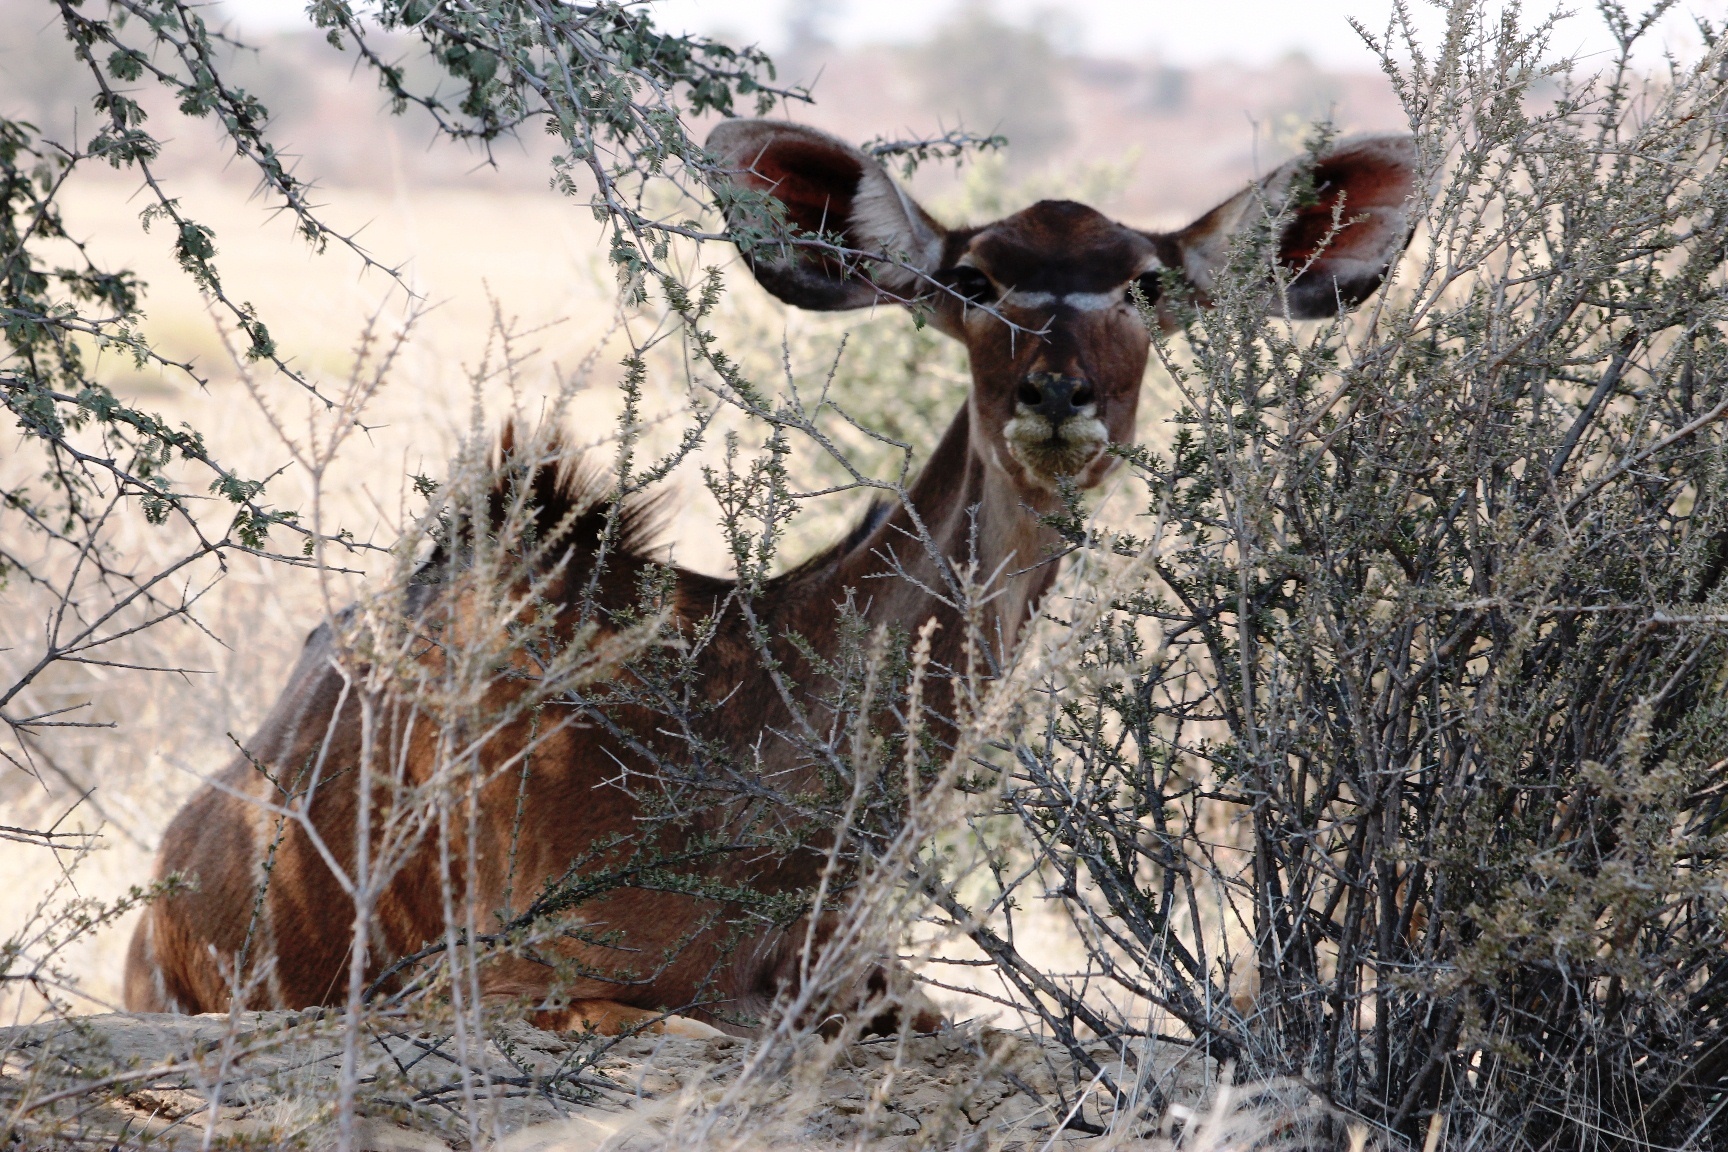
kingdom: Animalia
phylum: Chordata
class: Mammalia
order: Artiodactyla
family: Bovidae
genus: Tragelaphus
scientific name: Tragelaphus strepsiceros
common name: Greater kudu
